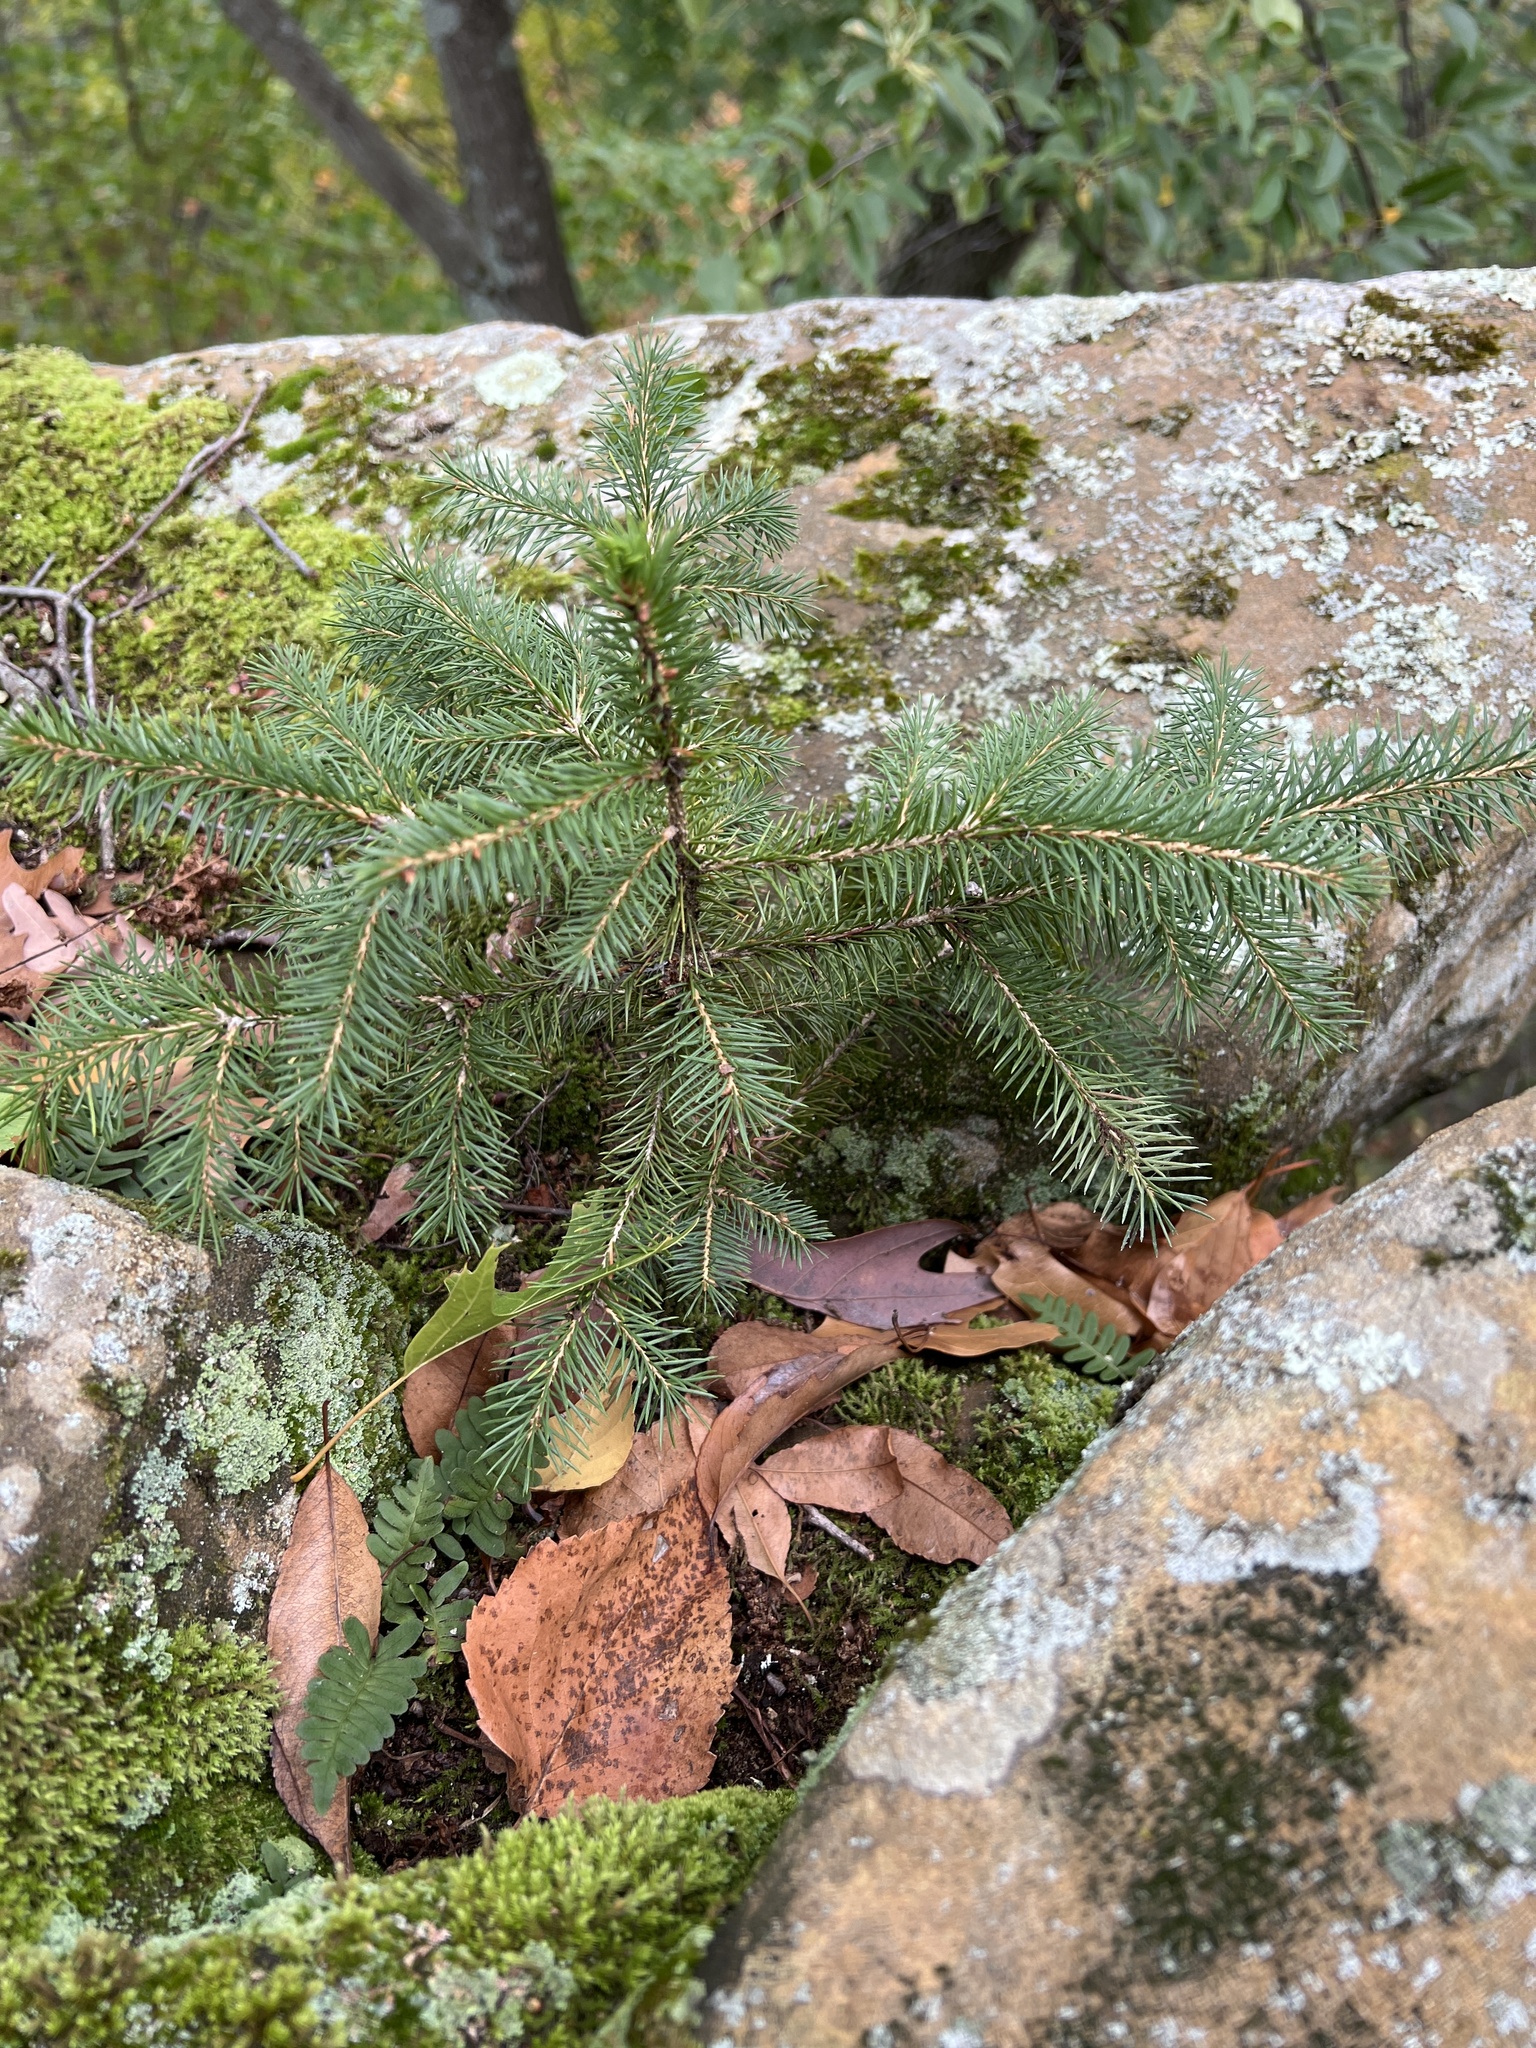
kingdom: Plantae
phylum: Tracheophyta
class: Pinopsida
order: Pinales
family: Pinaceae
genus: Picea
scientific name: Picea glauca
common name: White spruce
